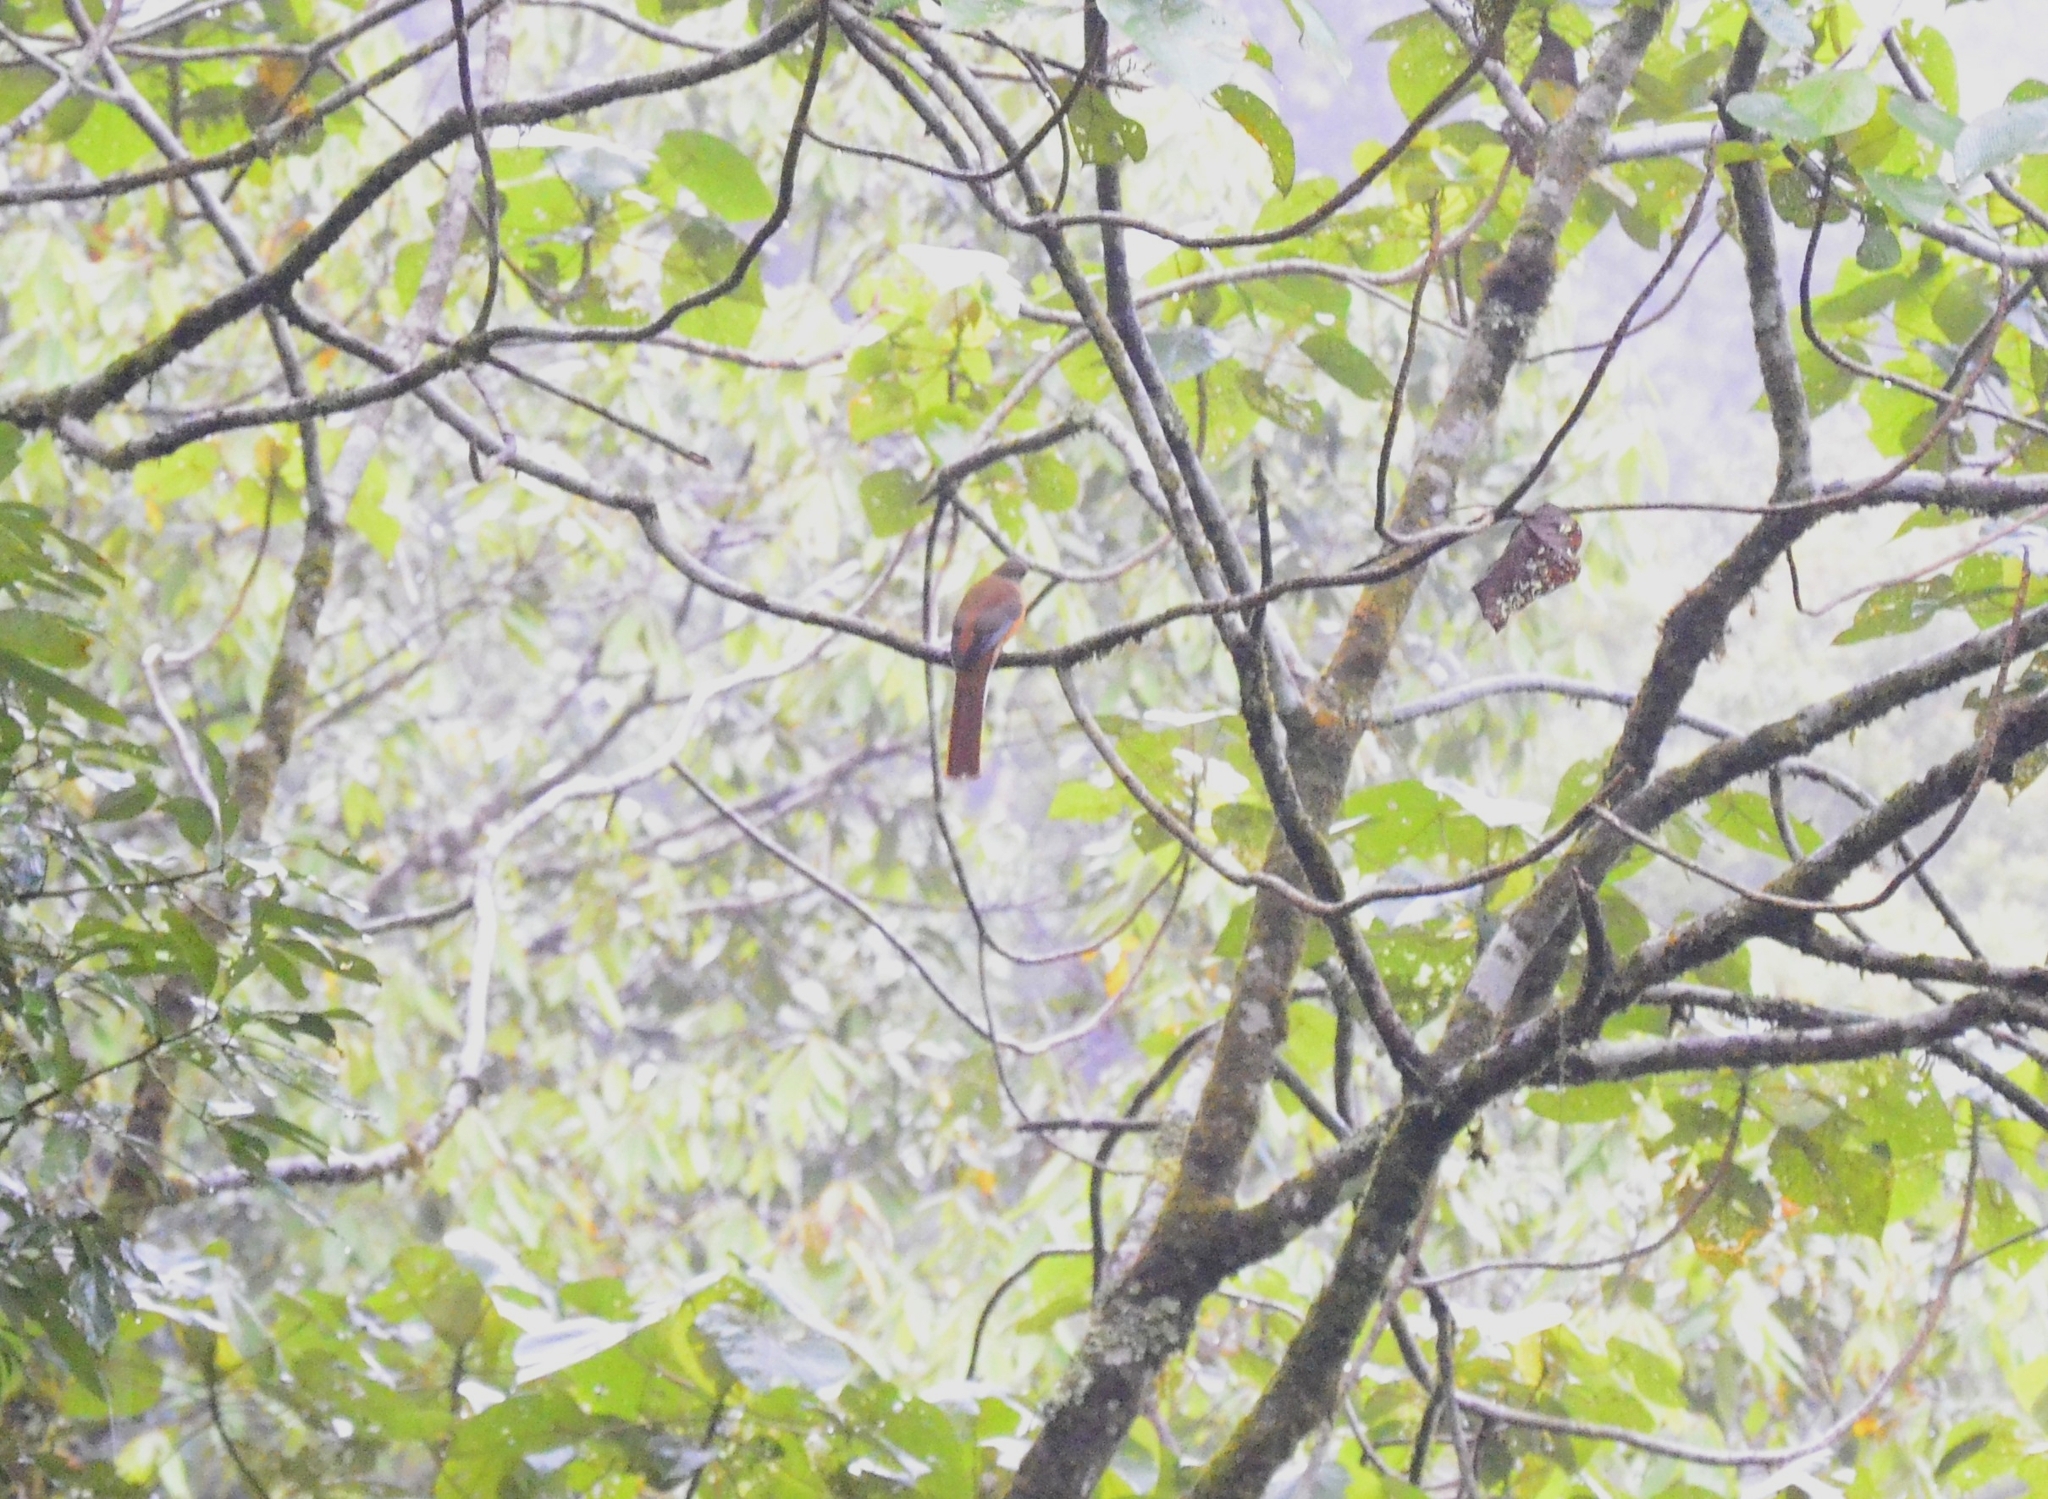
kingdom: Animalia
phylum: Chordata
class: Aves
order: Trogoniformes
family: Trogonidae
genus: Harpactes
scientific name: Harpactes fasciatus
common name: Malabar trogon
